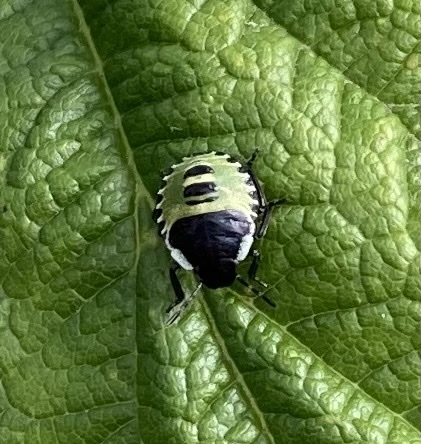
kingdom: Animalia
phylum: Arthropoda
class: Insecta
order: Hemiptera
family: Pentatomidae
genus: Palomena
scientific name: Palomena prasina
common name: Green shieldbug
